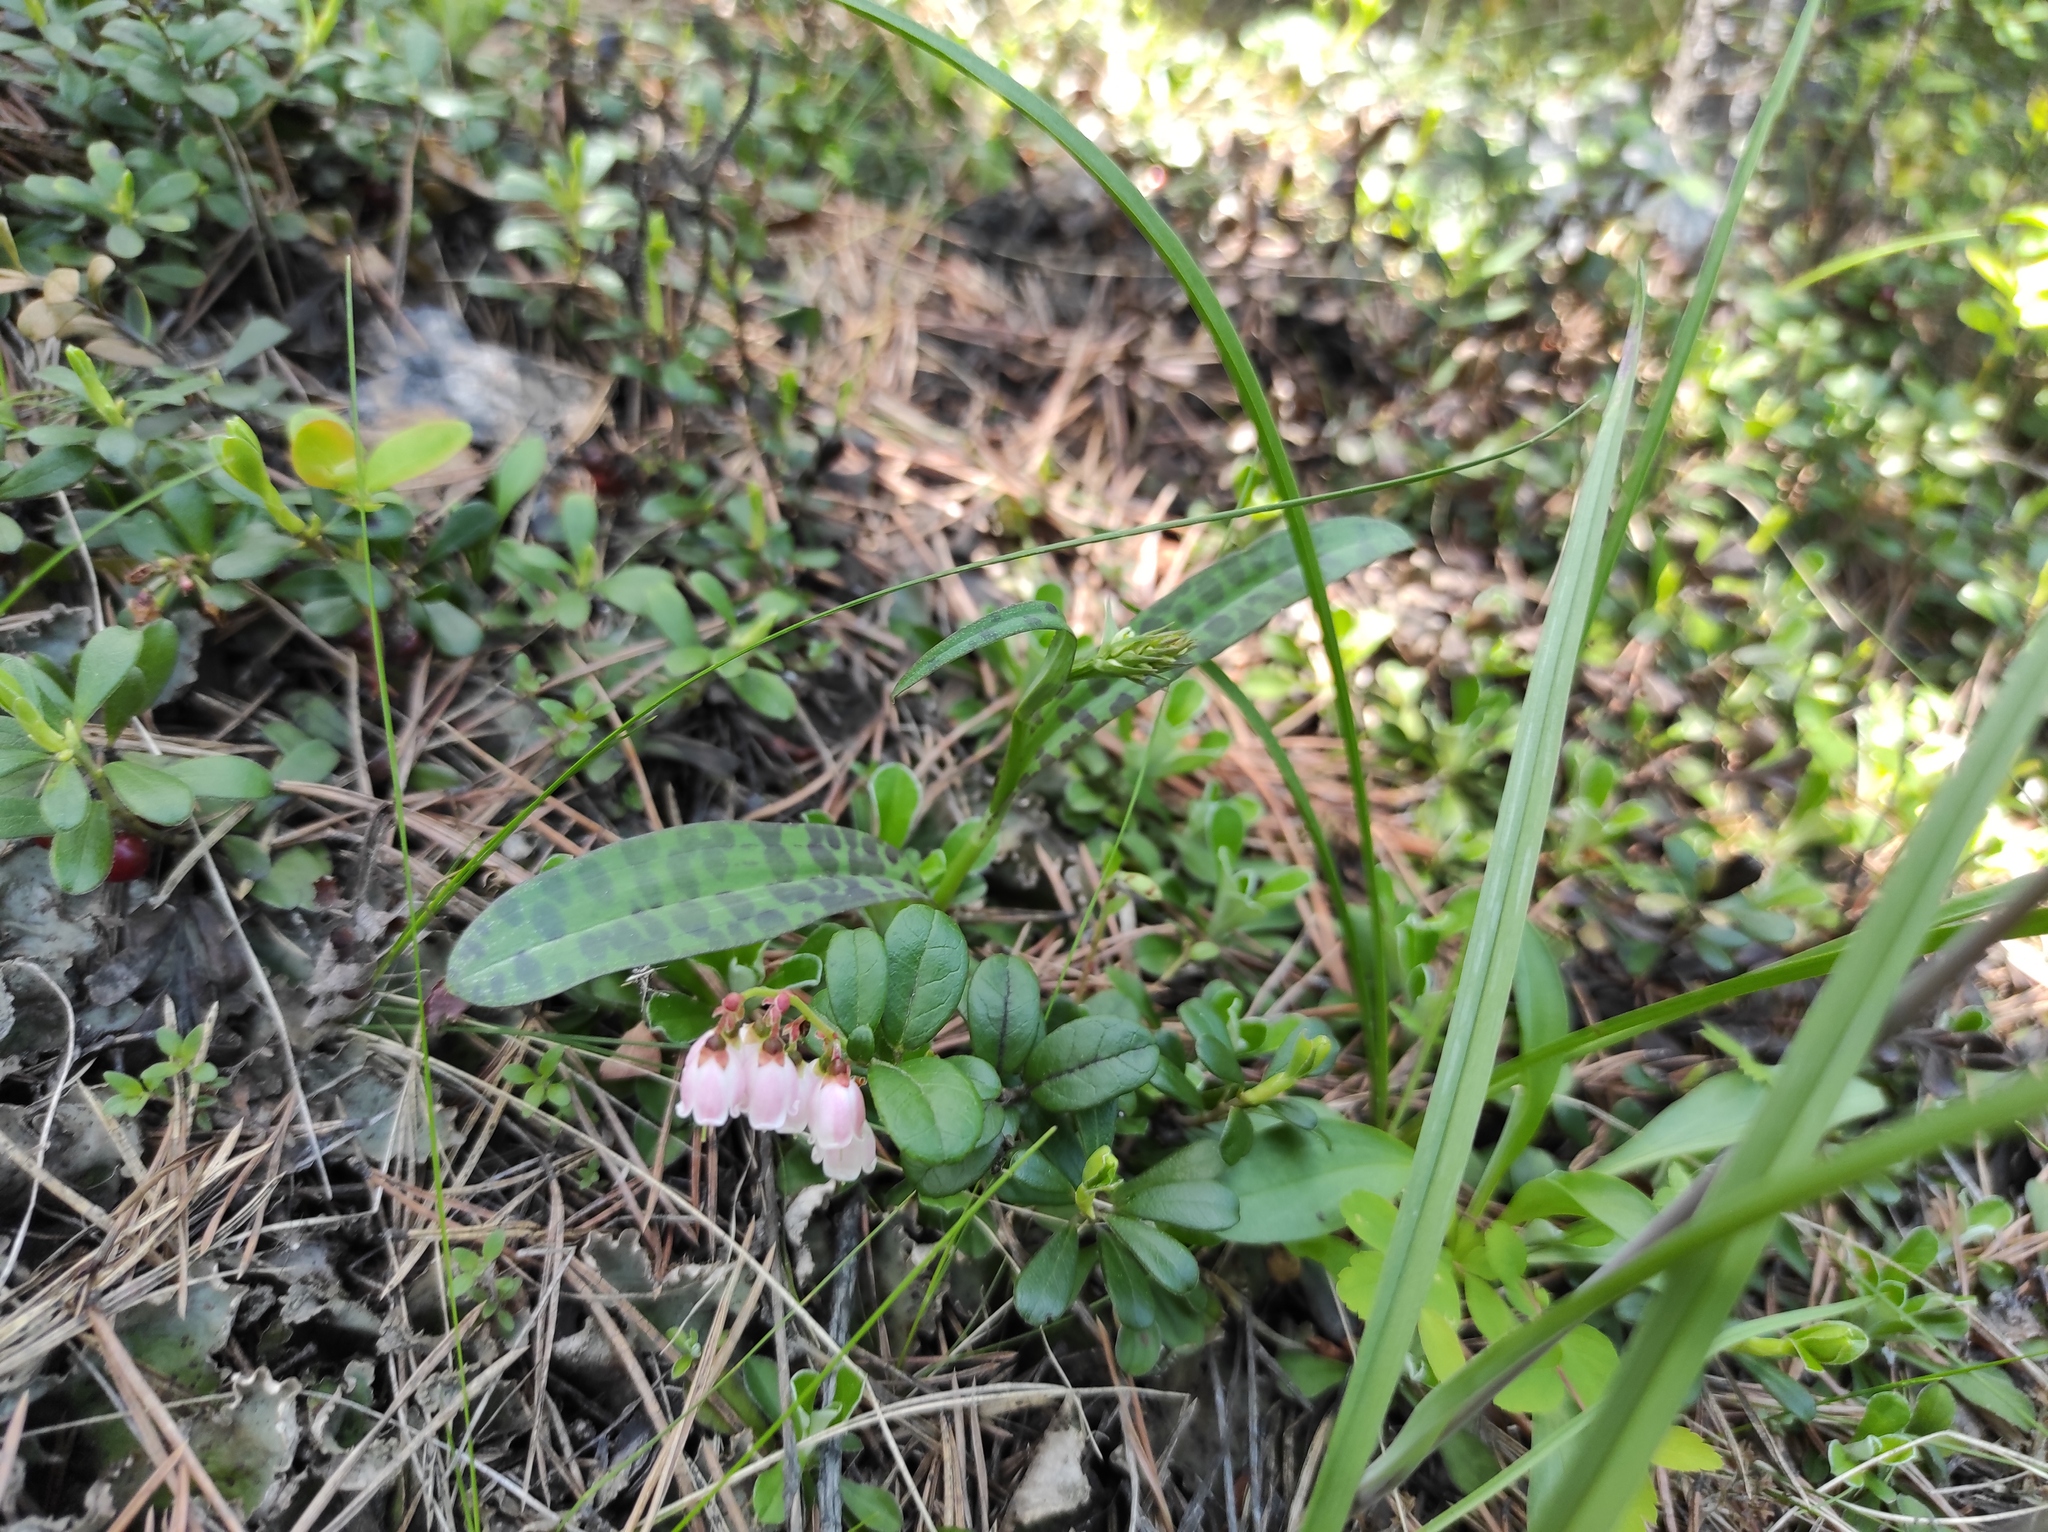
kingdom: Plantae
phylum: Tracheophyta
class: Magnoliopsida
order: Ericales
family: Ericaceae
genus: Vaccinium
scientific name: Vaccinium vitis-idaea
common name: Cowberry
